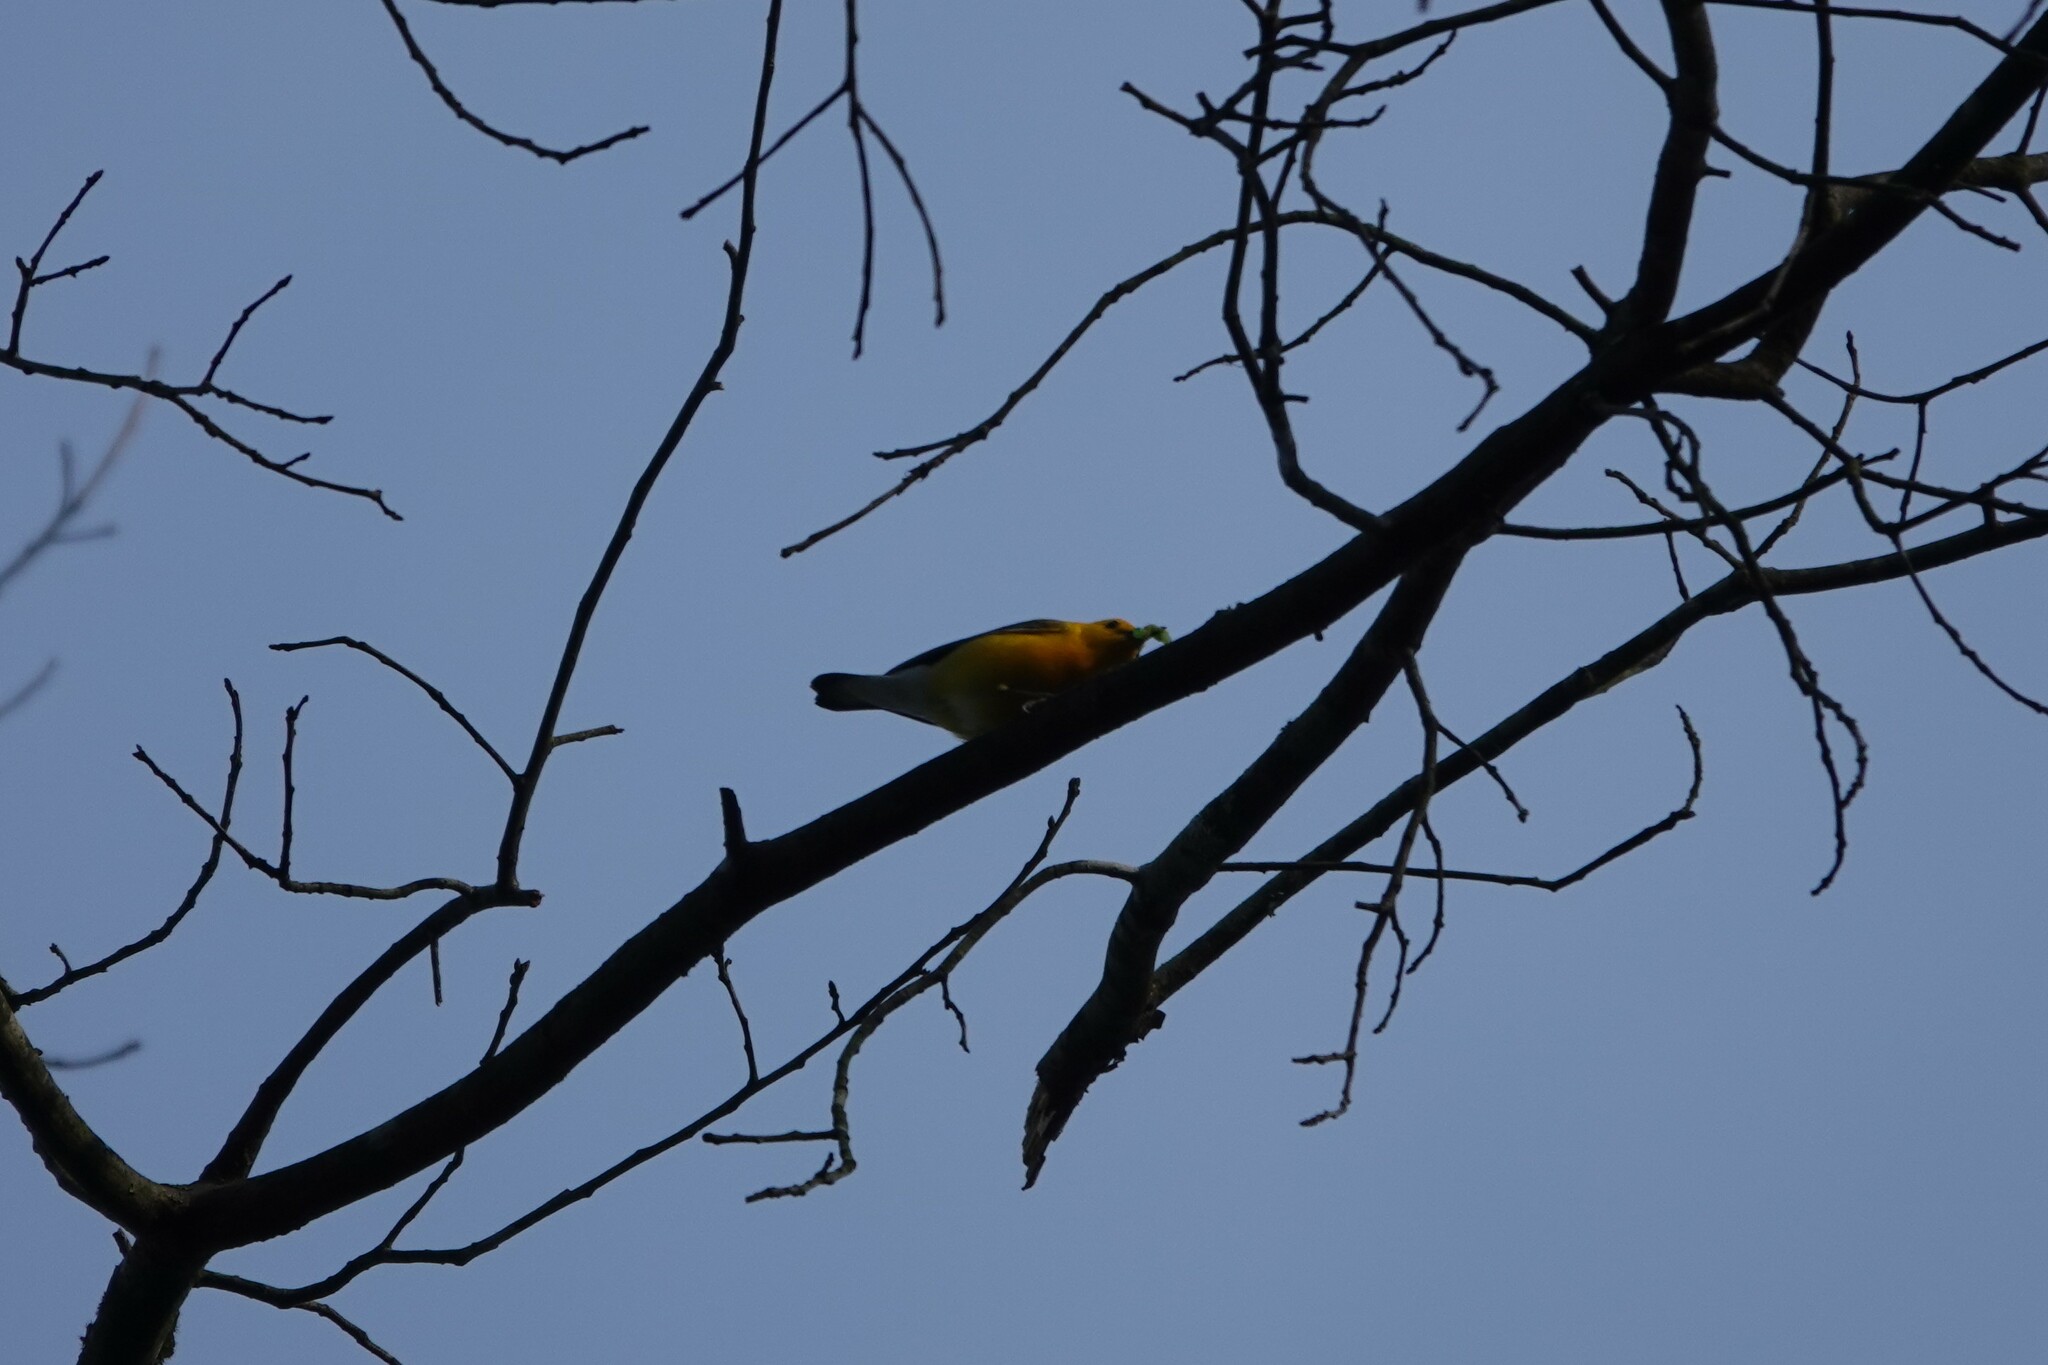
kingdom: Animalia
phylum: Chordata
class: Aves
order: Passeriformes
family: Parulidae
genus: Protonotaria
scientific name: Protonotaria citrea
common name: Prothonotary warbler
